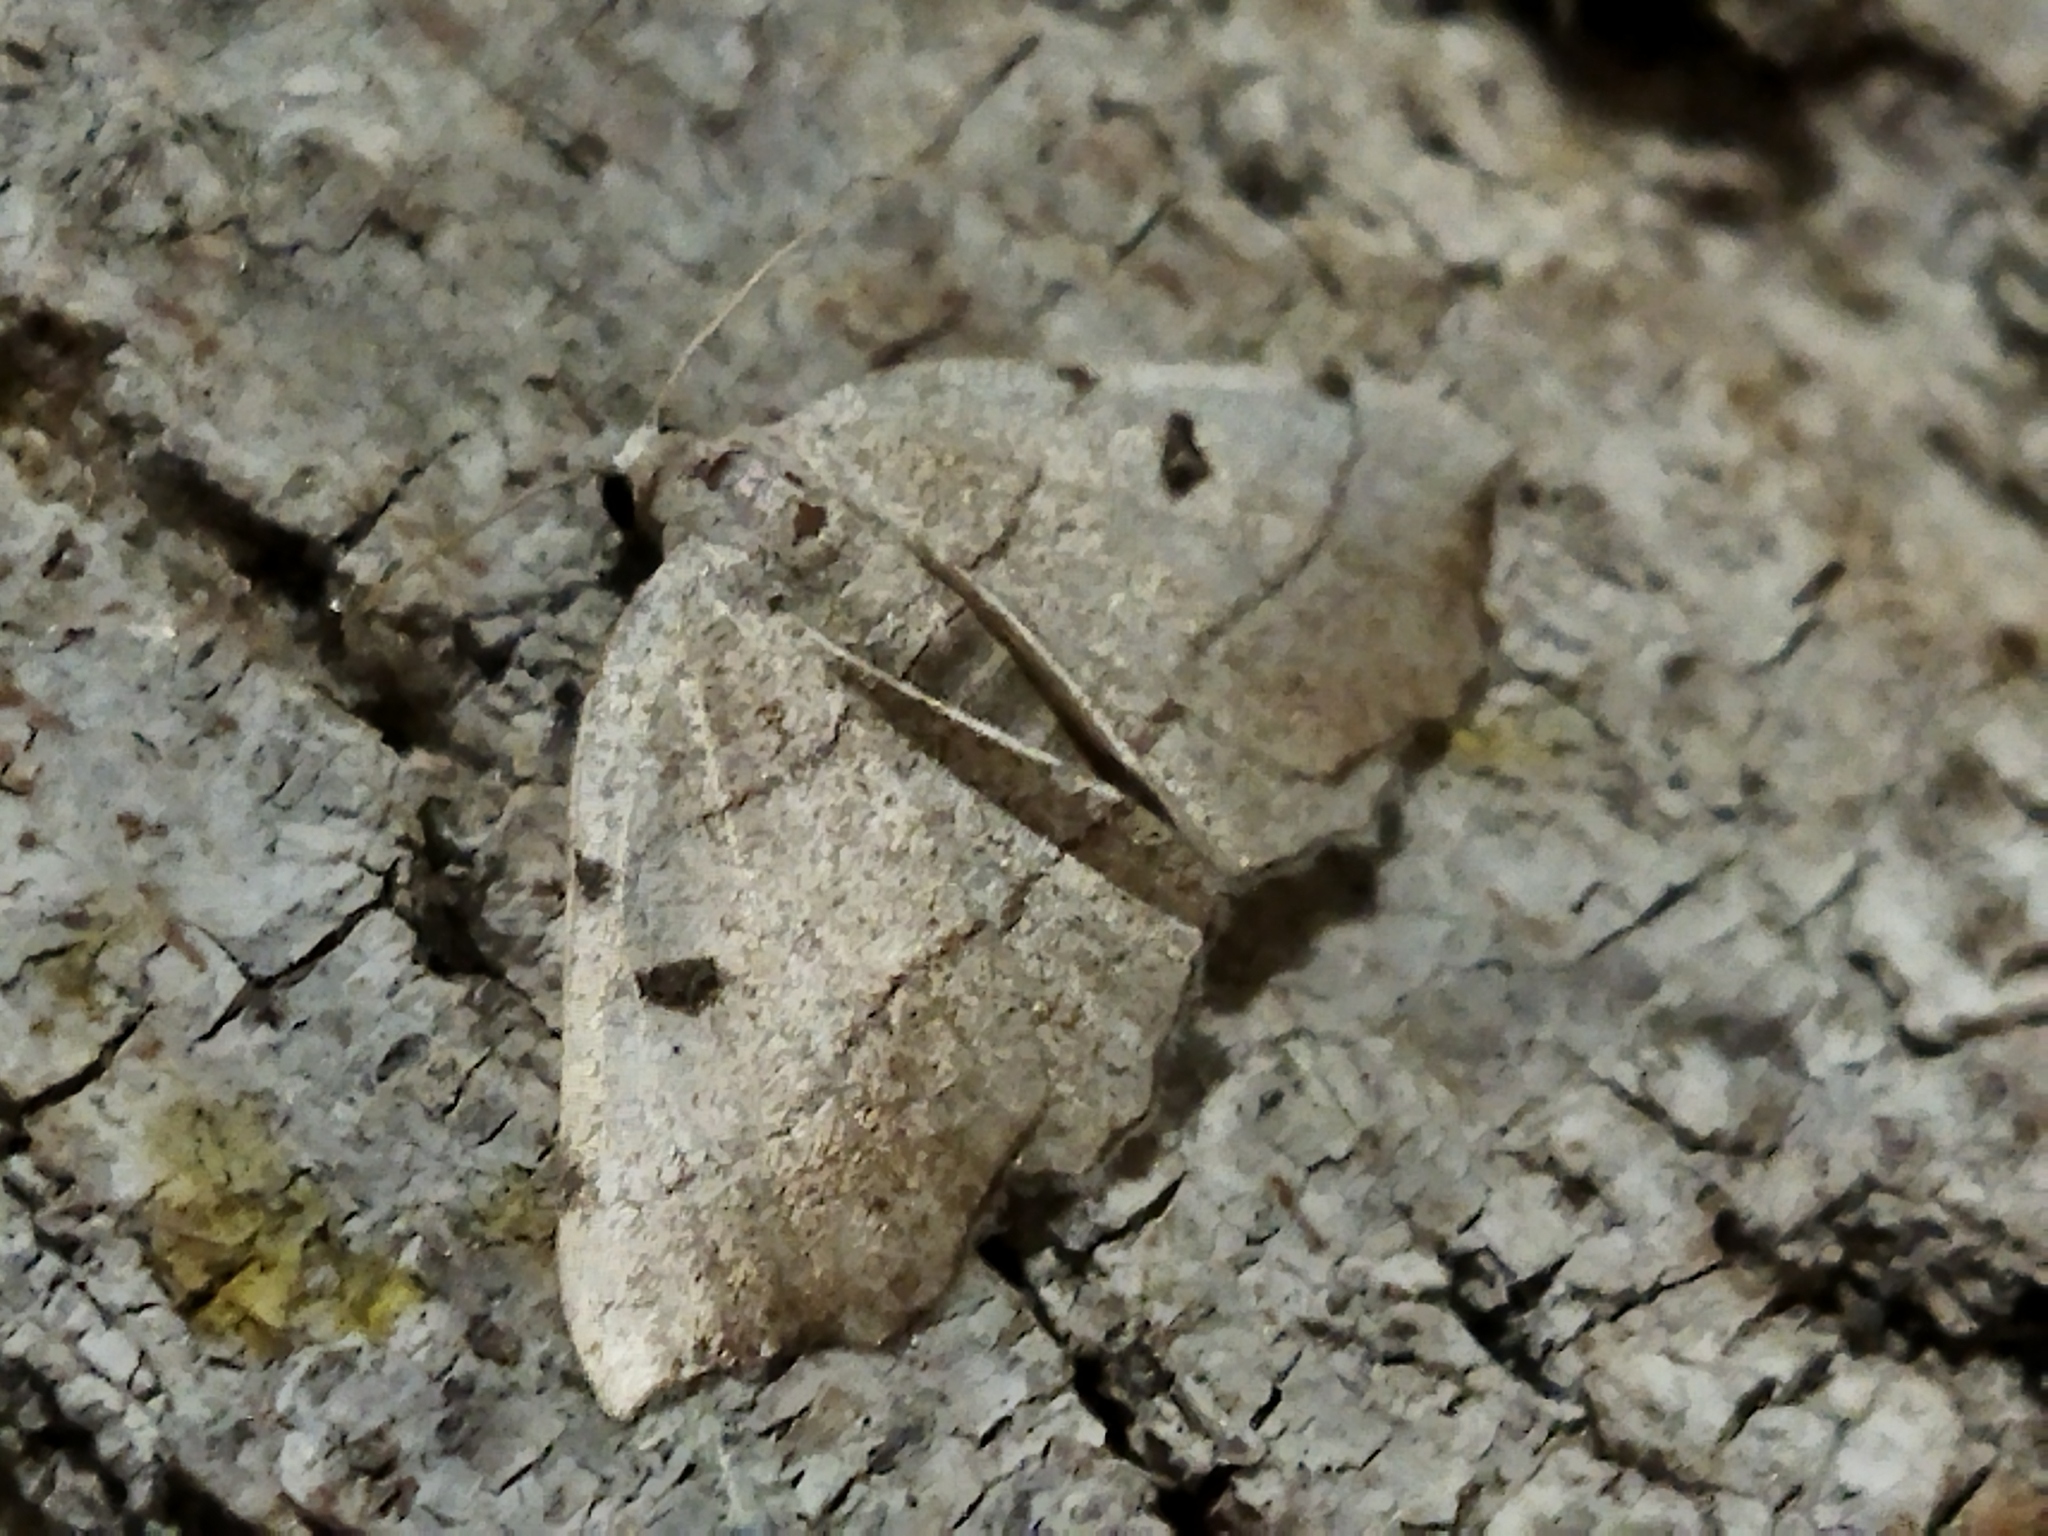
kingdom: Animalia
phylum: Arthropoda
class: Insecta
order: Lepidoptera
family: Geometridae
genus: Eilicrinia
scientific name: Eilicrinia trinotata
